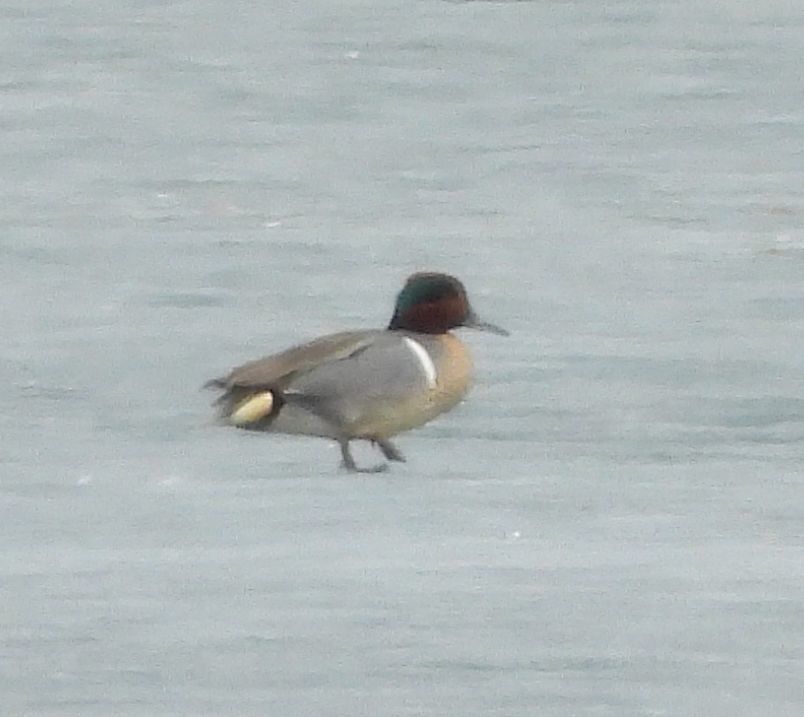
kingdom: Animalia
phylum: Chordata
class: Aves
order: Anseriformes
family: Anatidae
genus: Anas
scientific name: Anas crecca
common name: Eurasian teal
